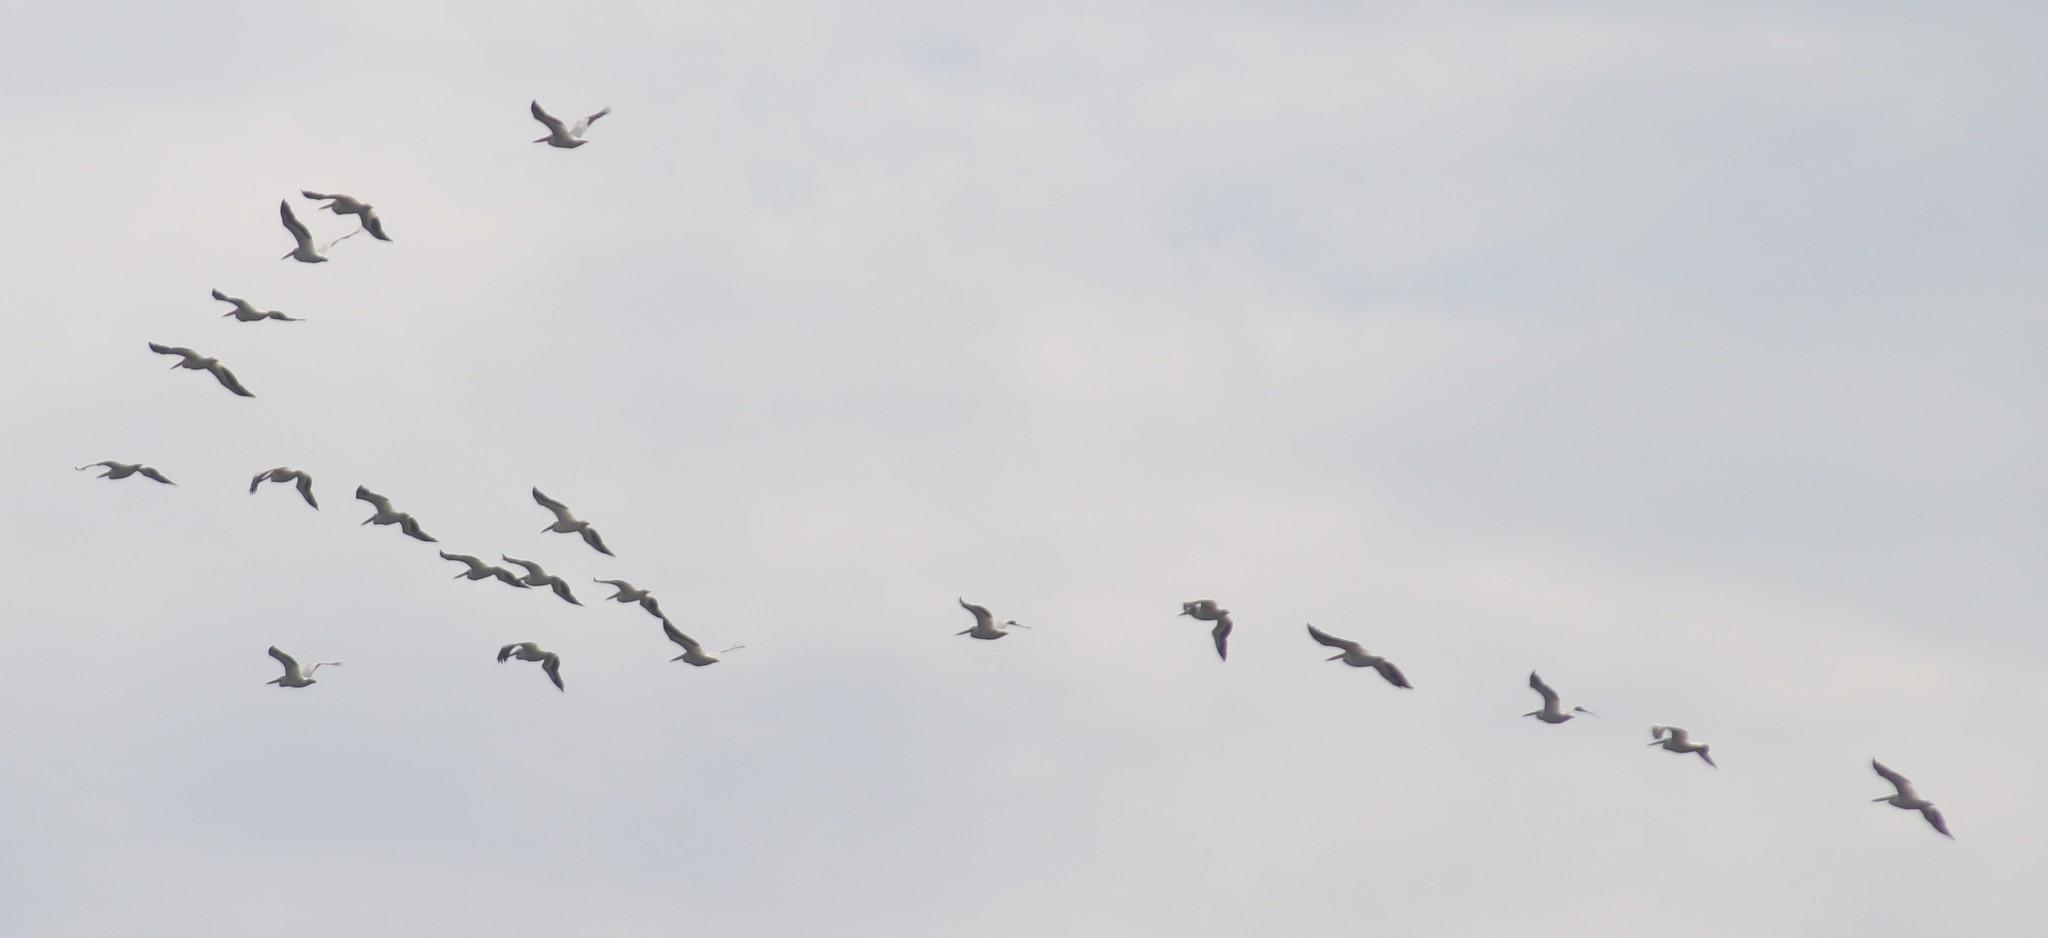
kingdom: Animalia
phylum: Chordata
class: Aves
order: Pelecaniformes
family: Pelecanidae
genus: Pelecanus
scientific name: Pelecanus erythrorhynchos
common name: American white pelican
